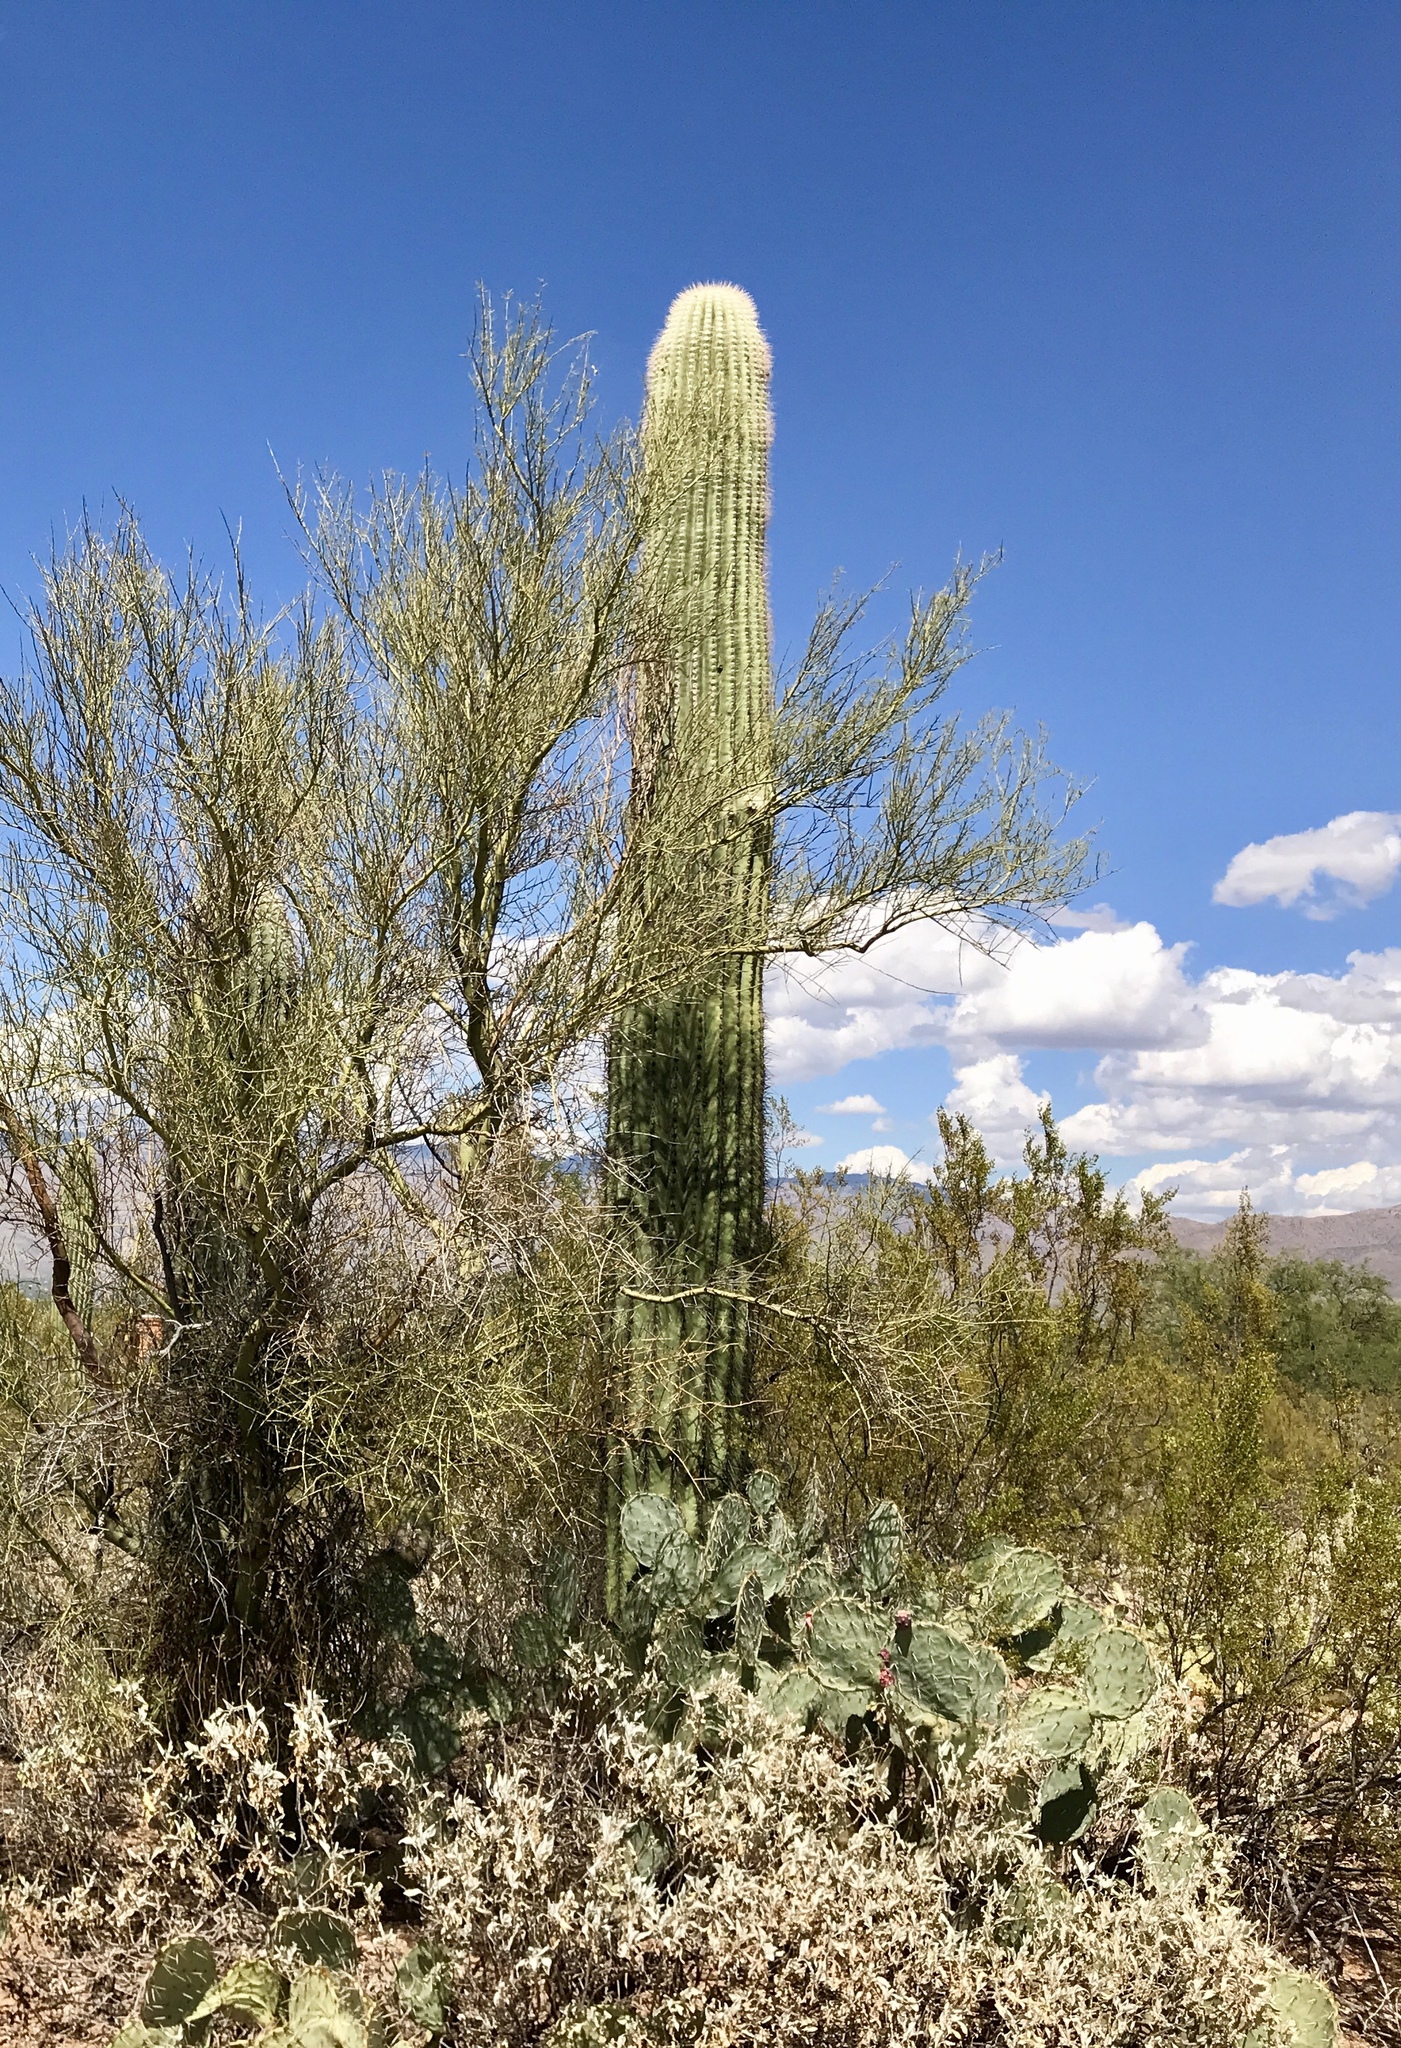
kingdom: Plantae
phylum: Tracheophyta
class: Magnoliopsida
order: Caryophyllales
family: Cactaceae
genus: Carnegiea
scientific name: Carnegiea gigantea
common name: Saguaro
